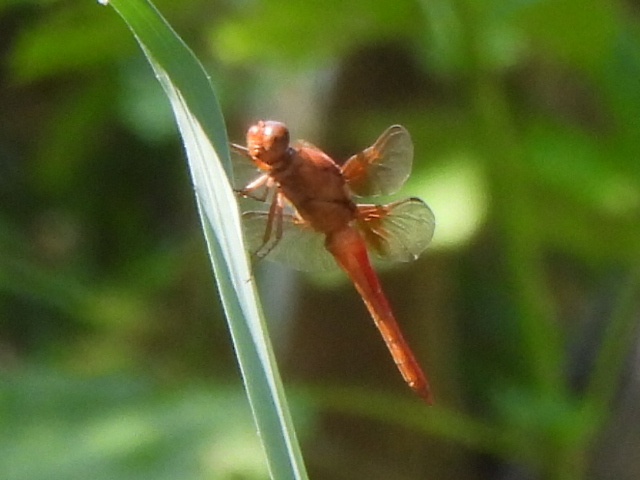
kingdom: Animalia
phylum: Arthropoda
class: Insecta
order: Odonata
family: Libellulidae
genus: Libellula
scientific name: Libellula croceipennis
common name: Neon skimmer
